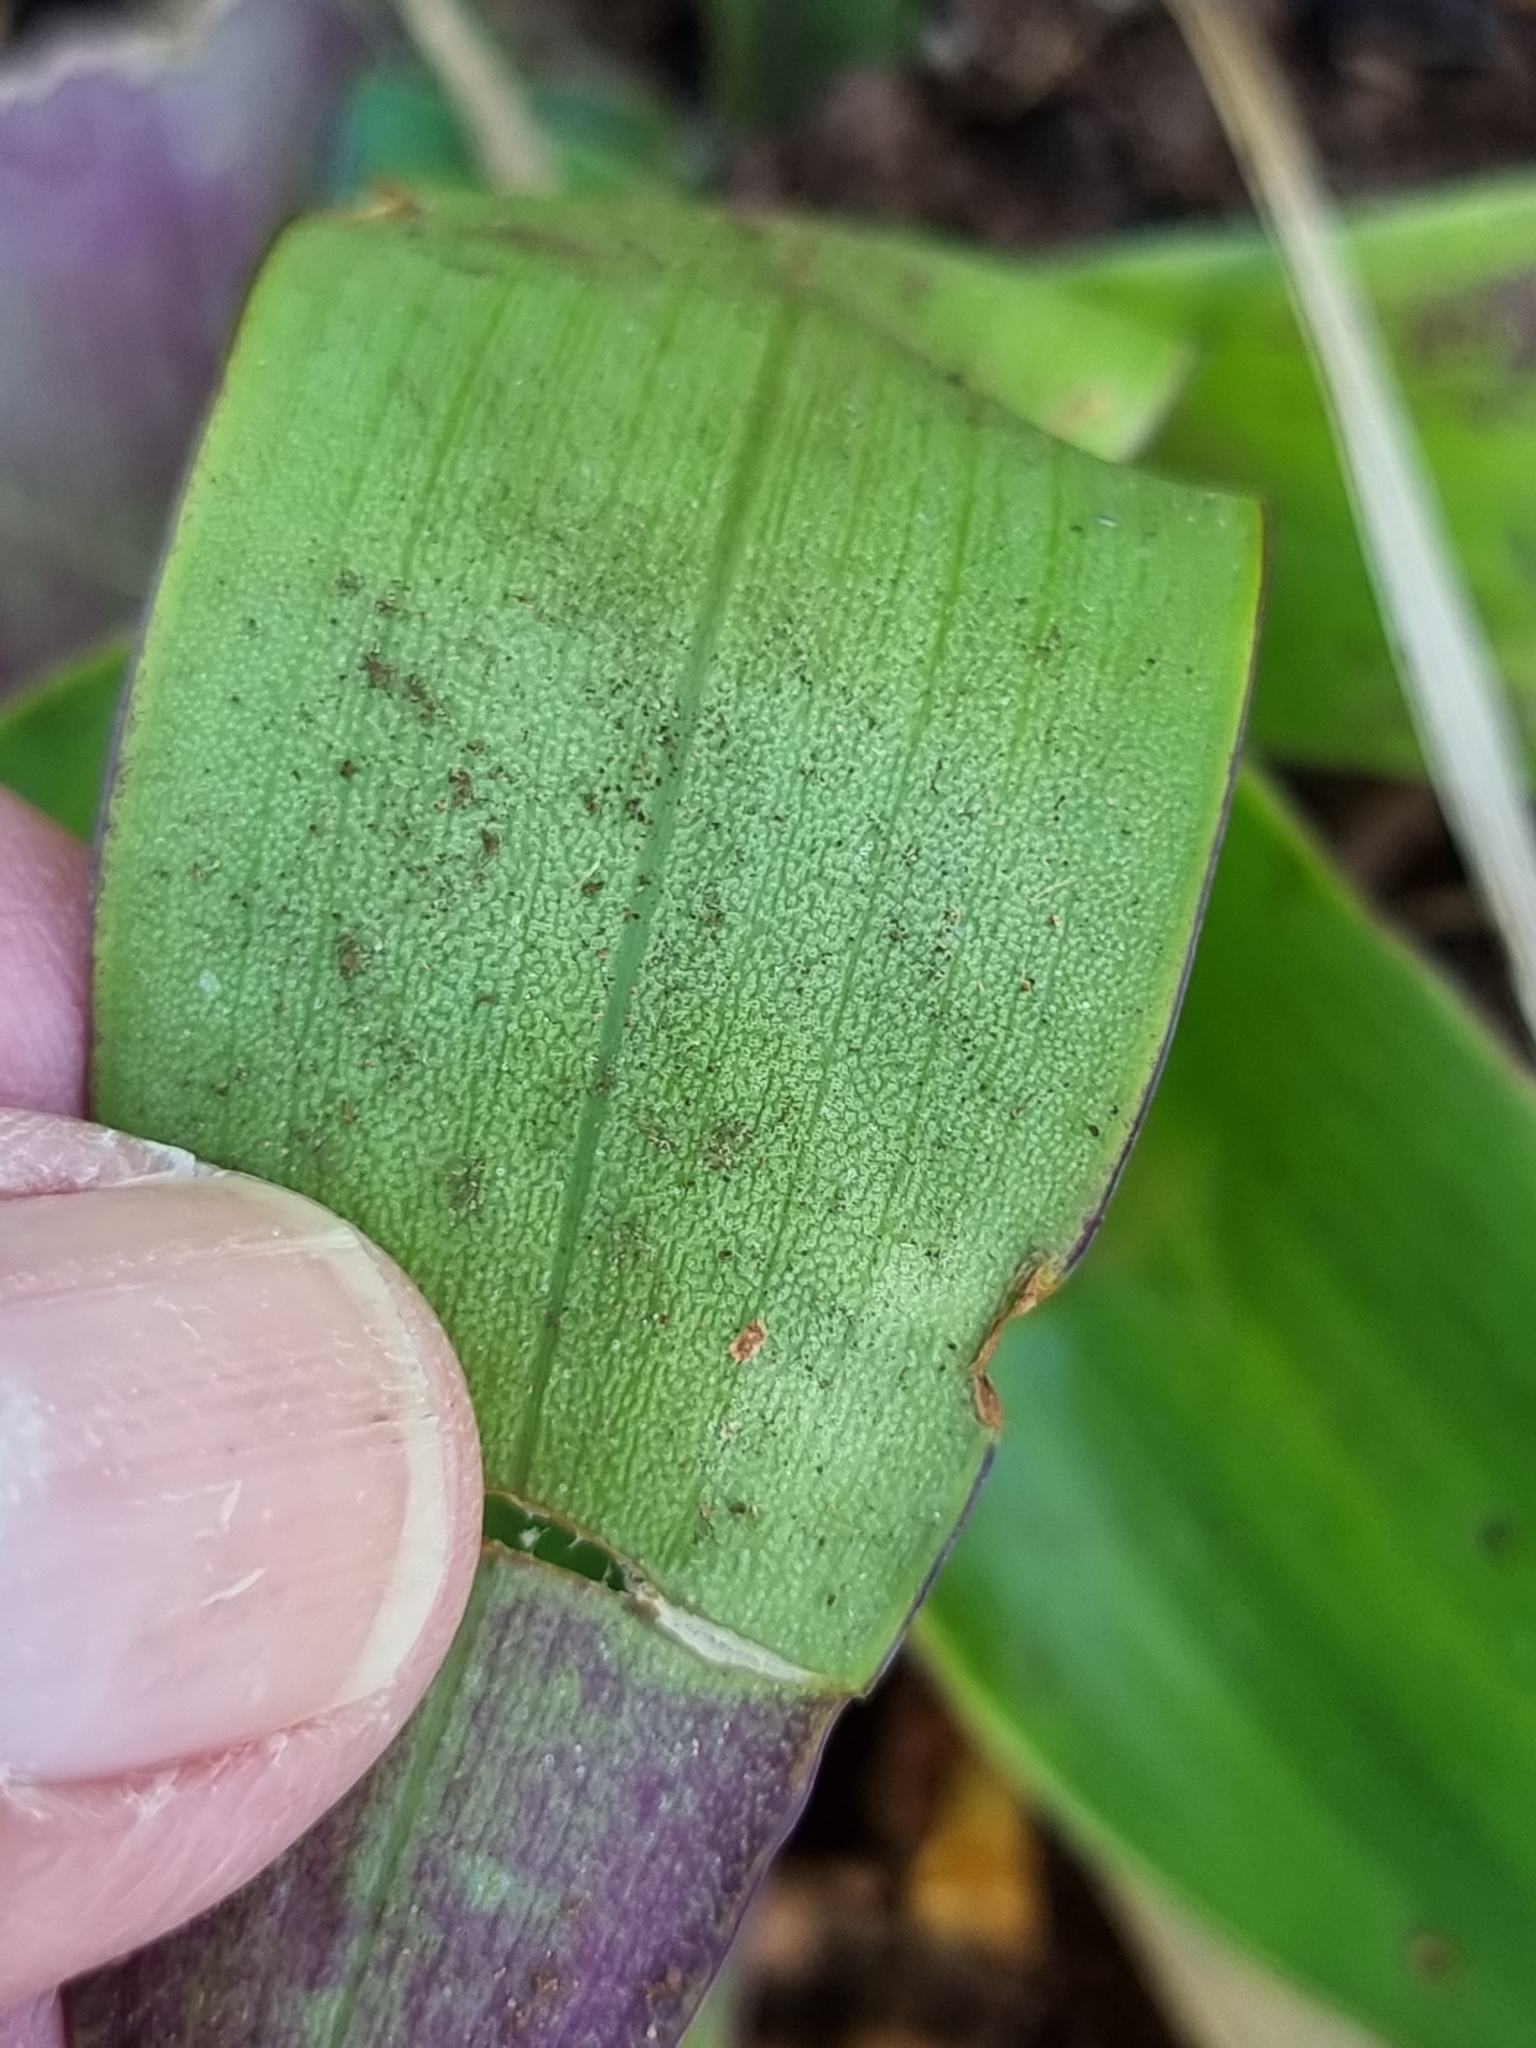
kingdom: Plantae
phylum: Tracheophyta
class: Liliopsida
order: Commelinales
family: Commelinaceae
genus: Callisia
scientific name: Callisia fragrans
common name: Basketplant
